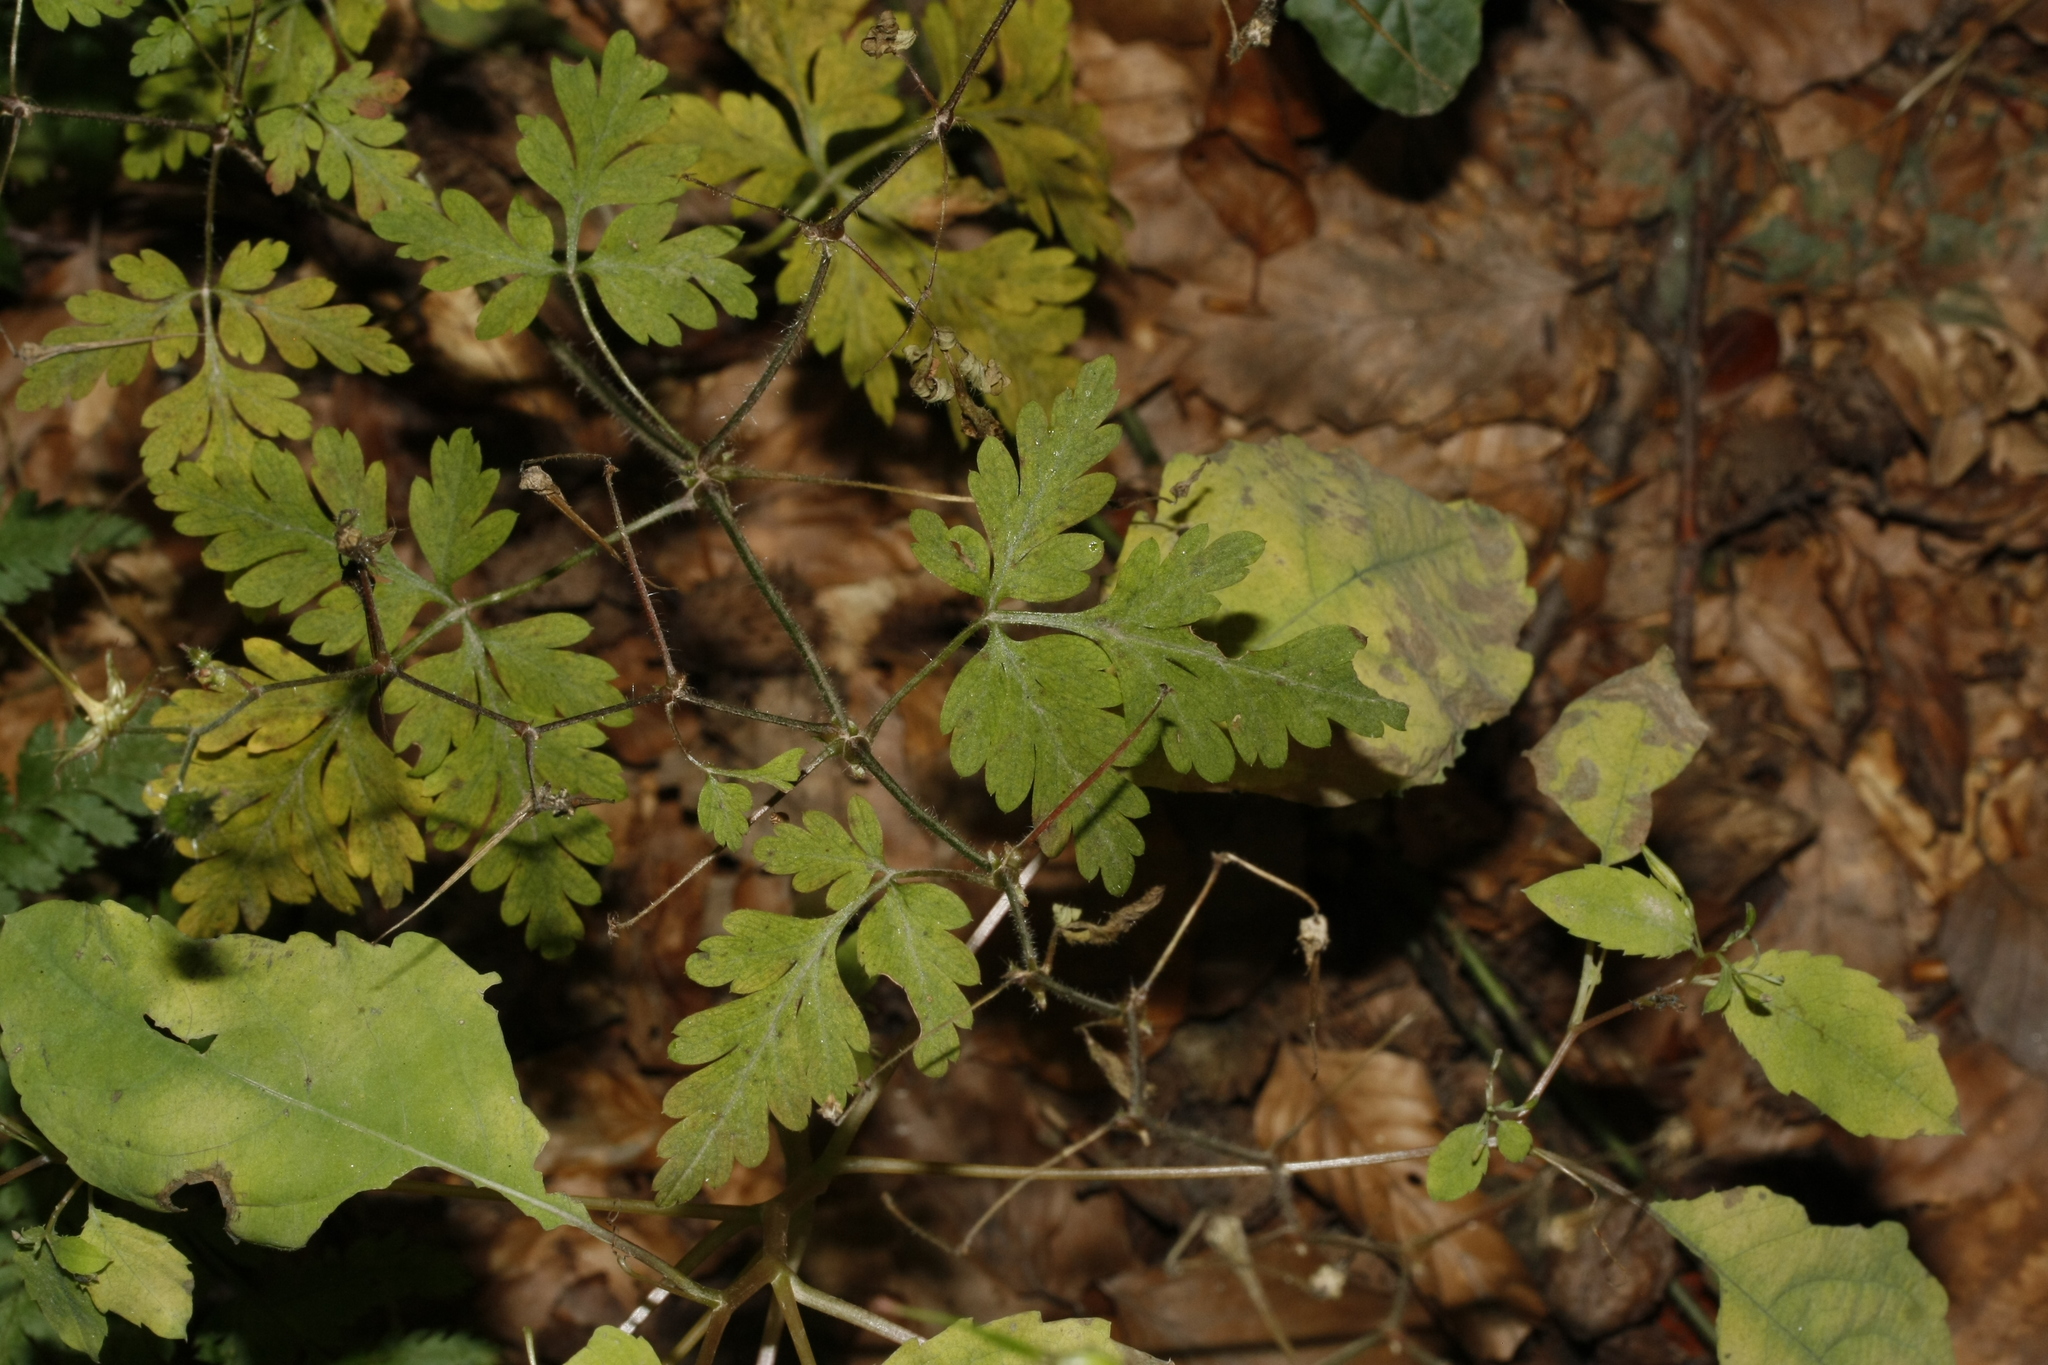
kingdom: Plantae
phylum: Tracheophyta
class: Magnoliopsida
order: Geraniales
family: Geraniaceae
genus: Geranium
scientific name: Geranium robertianum
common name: Herb-robert
